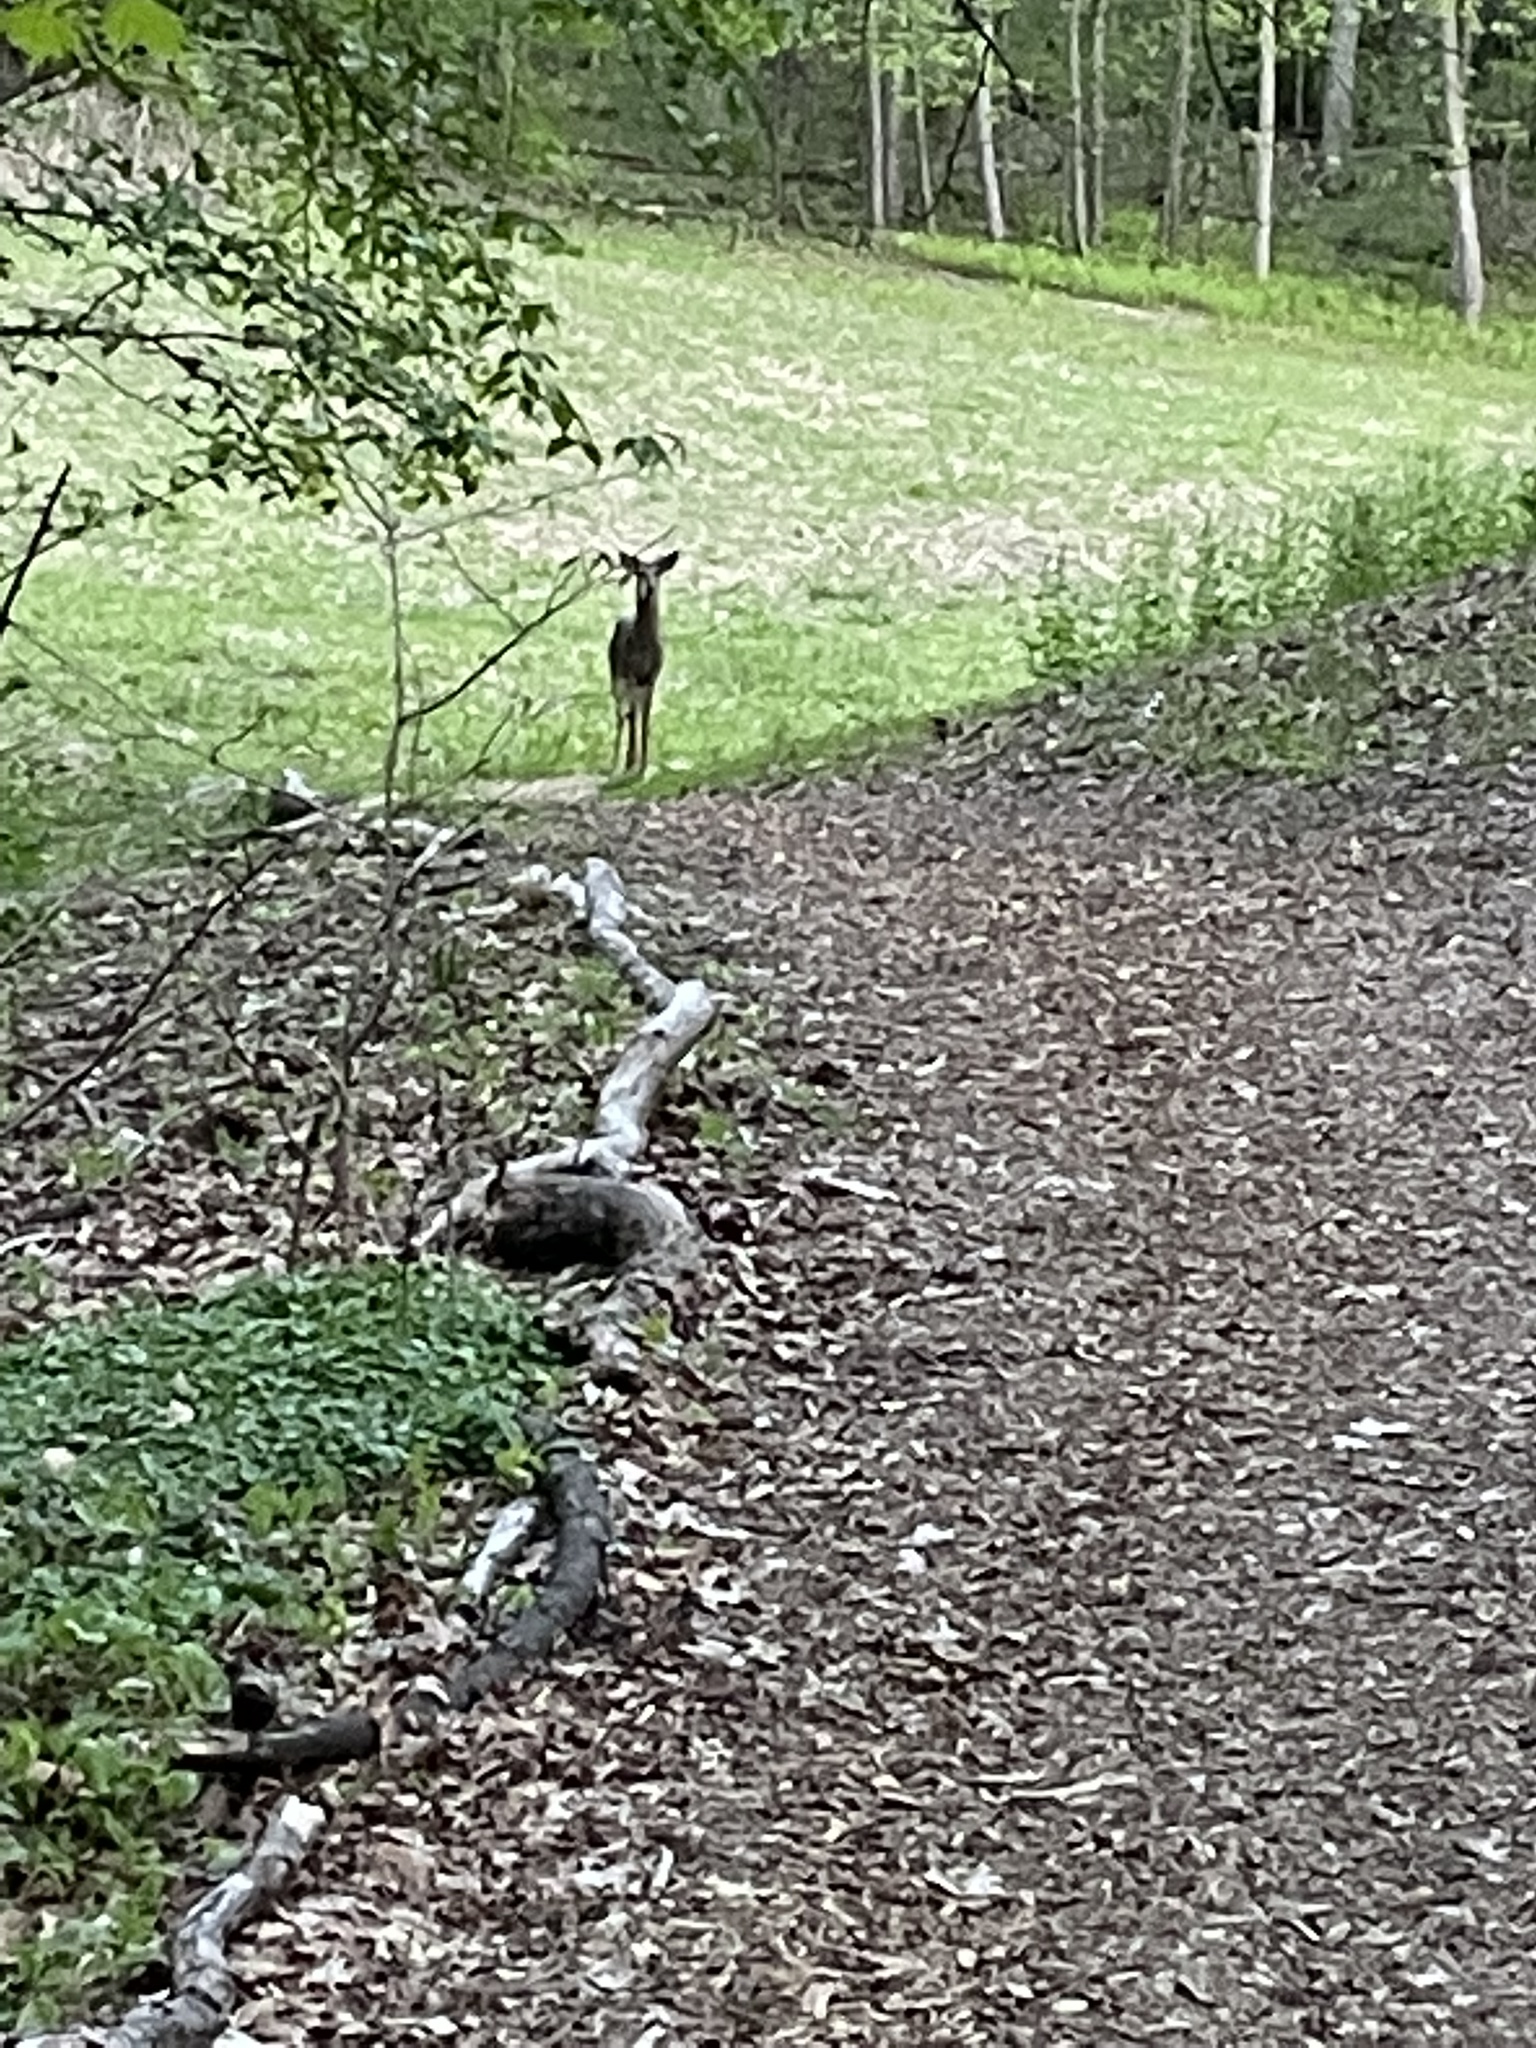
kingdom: Animalia
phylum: Chordata
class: Mammalia
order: Artiodactyla
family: Cervidae
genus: Odocoileus
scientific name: Odocoileus virginianus
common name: White-tailed deer
